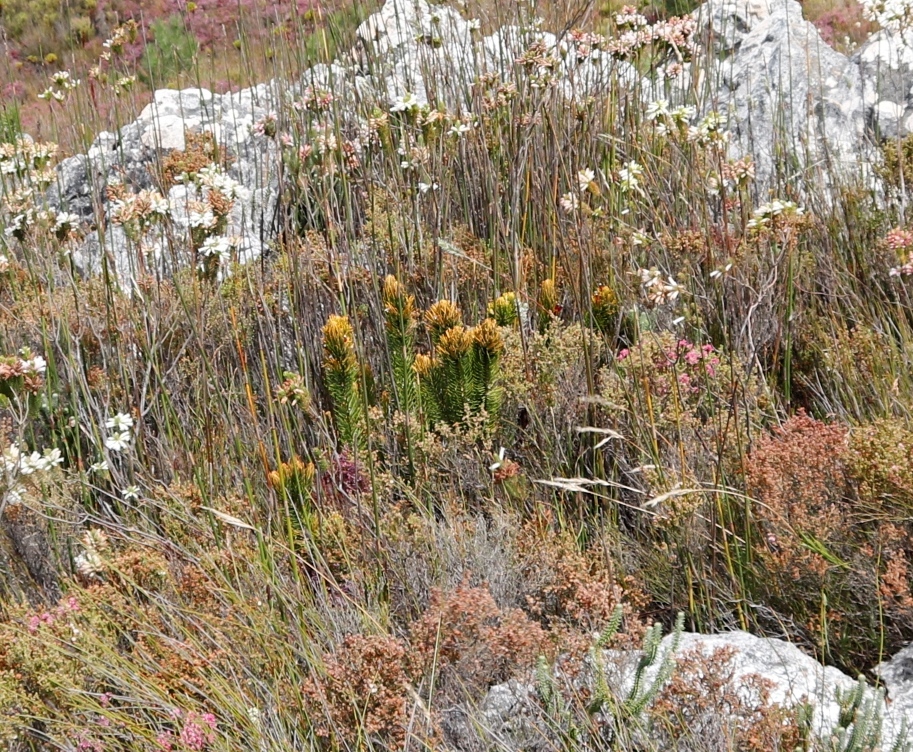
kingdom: Plantae
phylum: Tracheophyta
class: Magnoliopsida
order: Lamiales
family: Stilbaceae
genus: Retzia
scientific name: Retzia capensis
